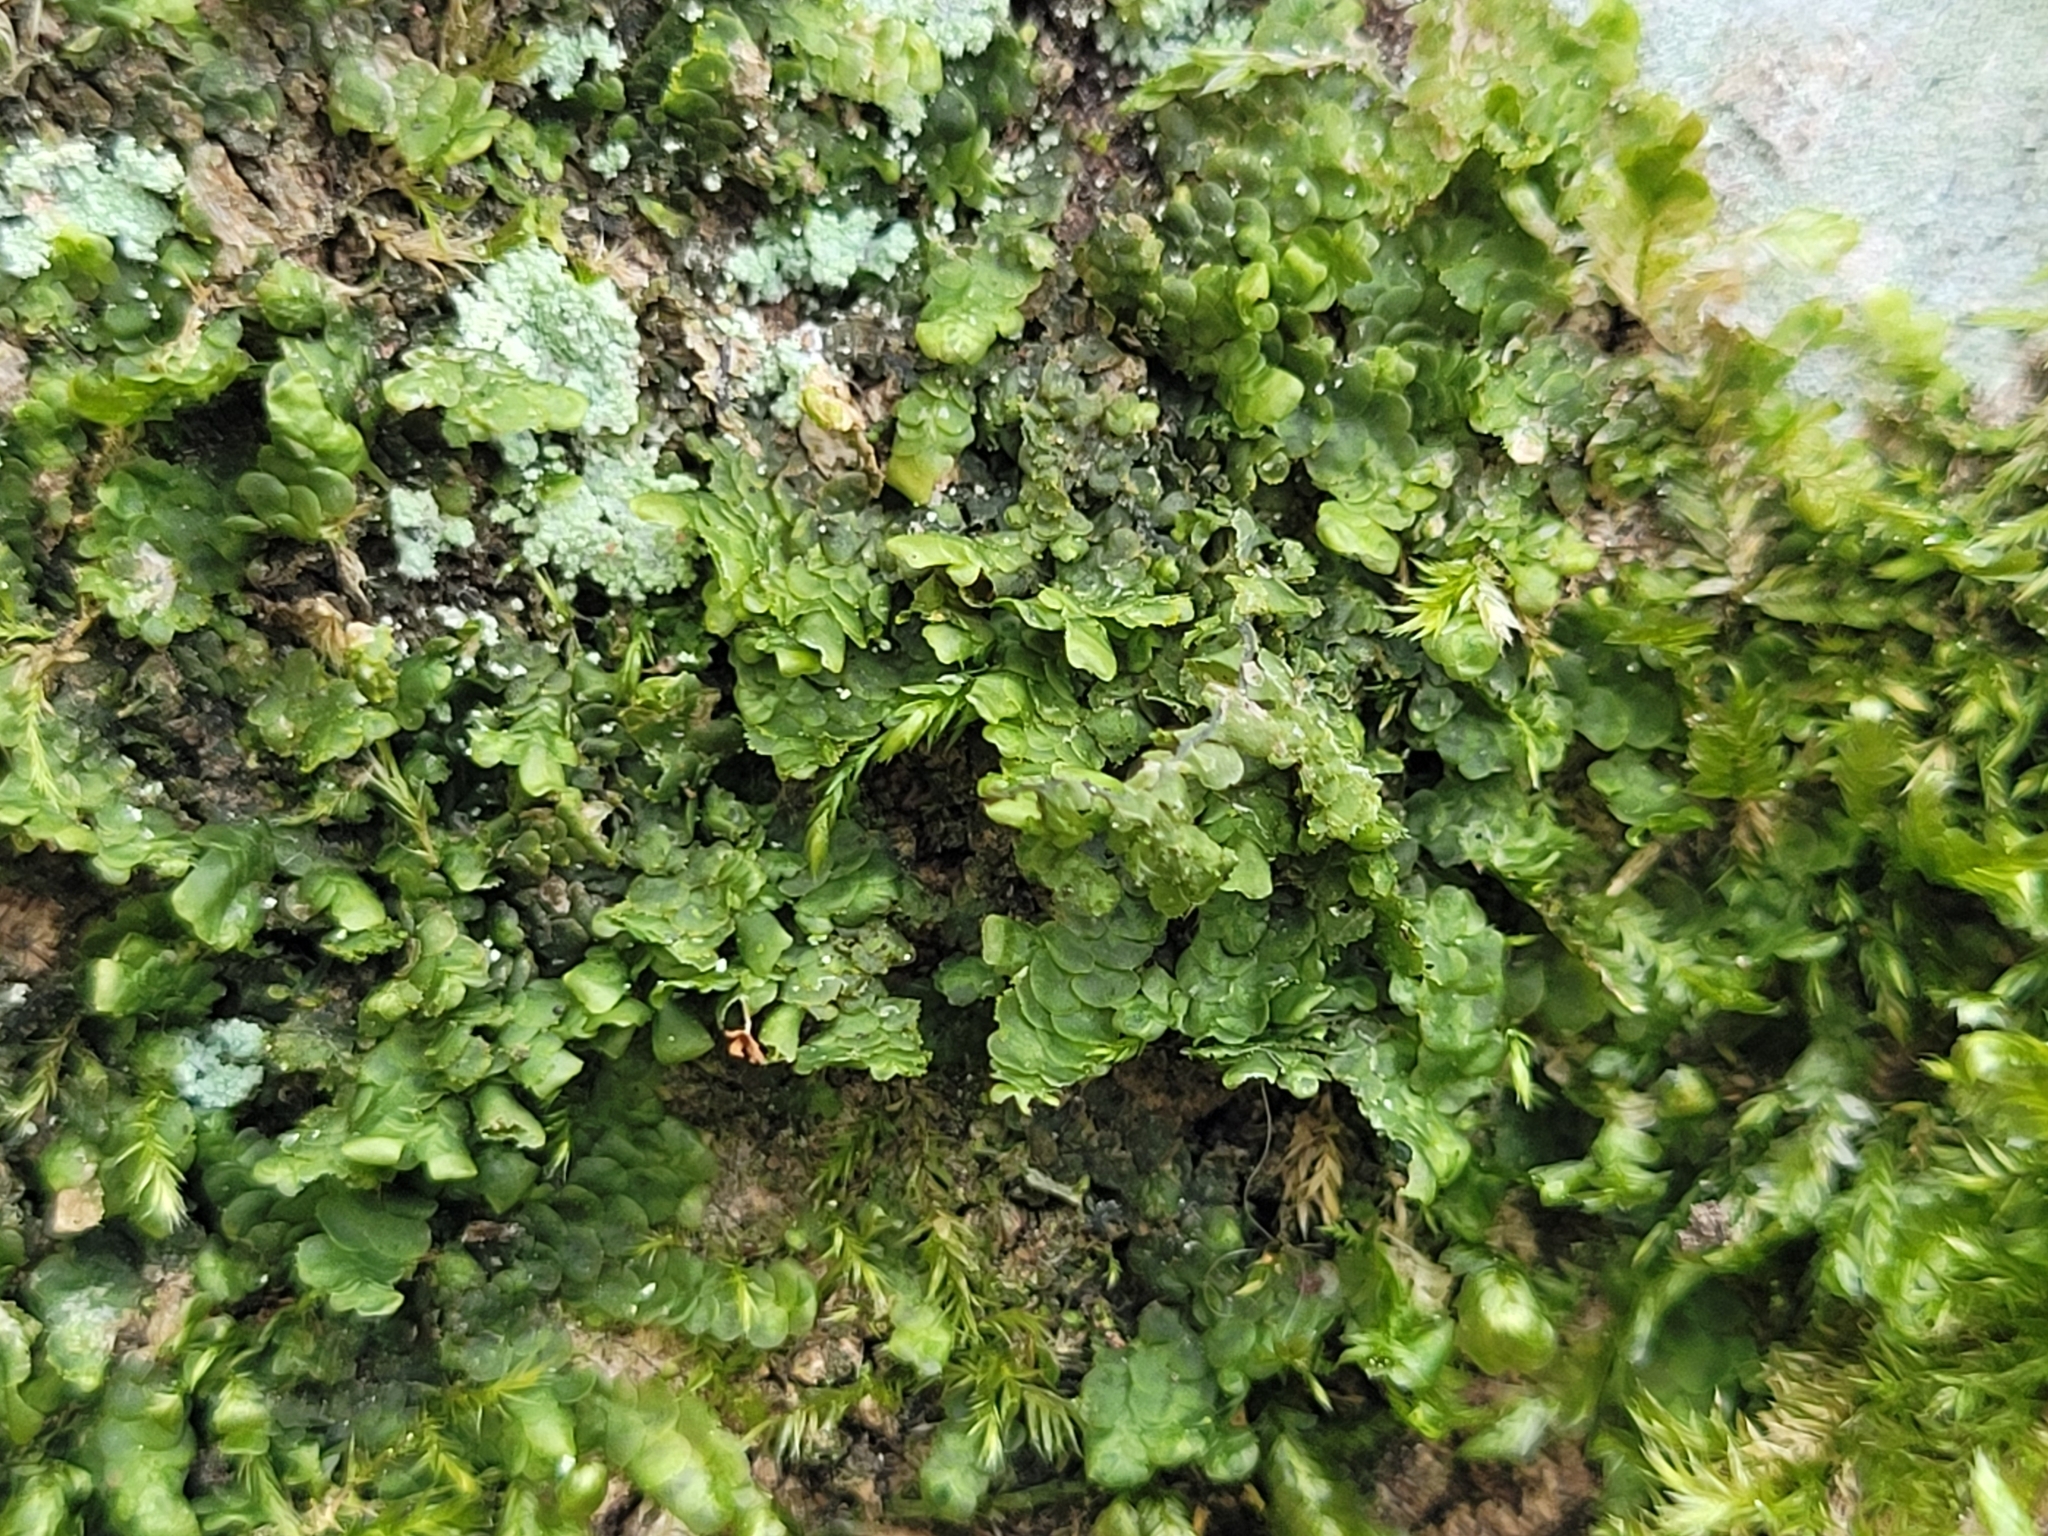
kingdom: Plantae
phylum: Marchantiophyta
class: Jungermanniopsida
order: Porellales
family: Radulaceae
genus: Radula
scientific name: Radula complanata
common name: Flat-leaved scalewort
